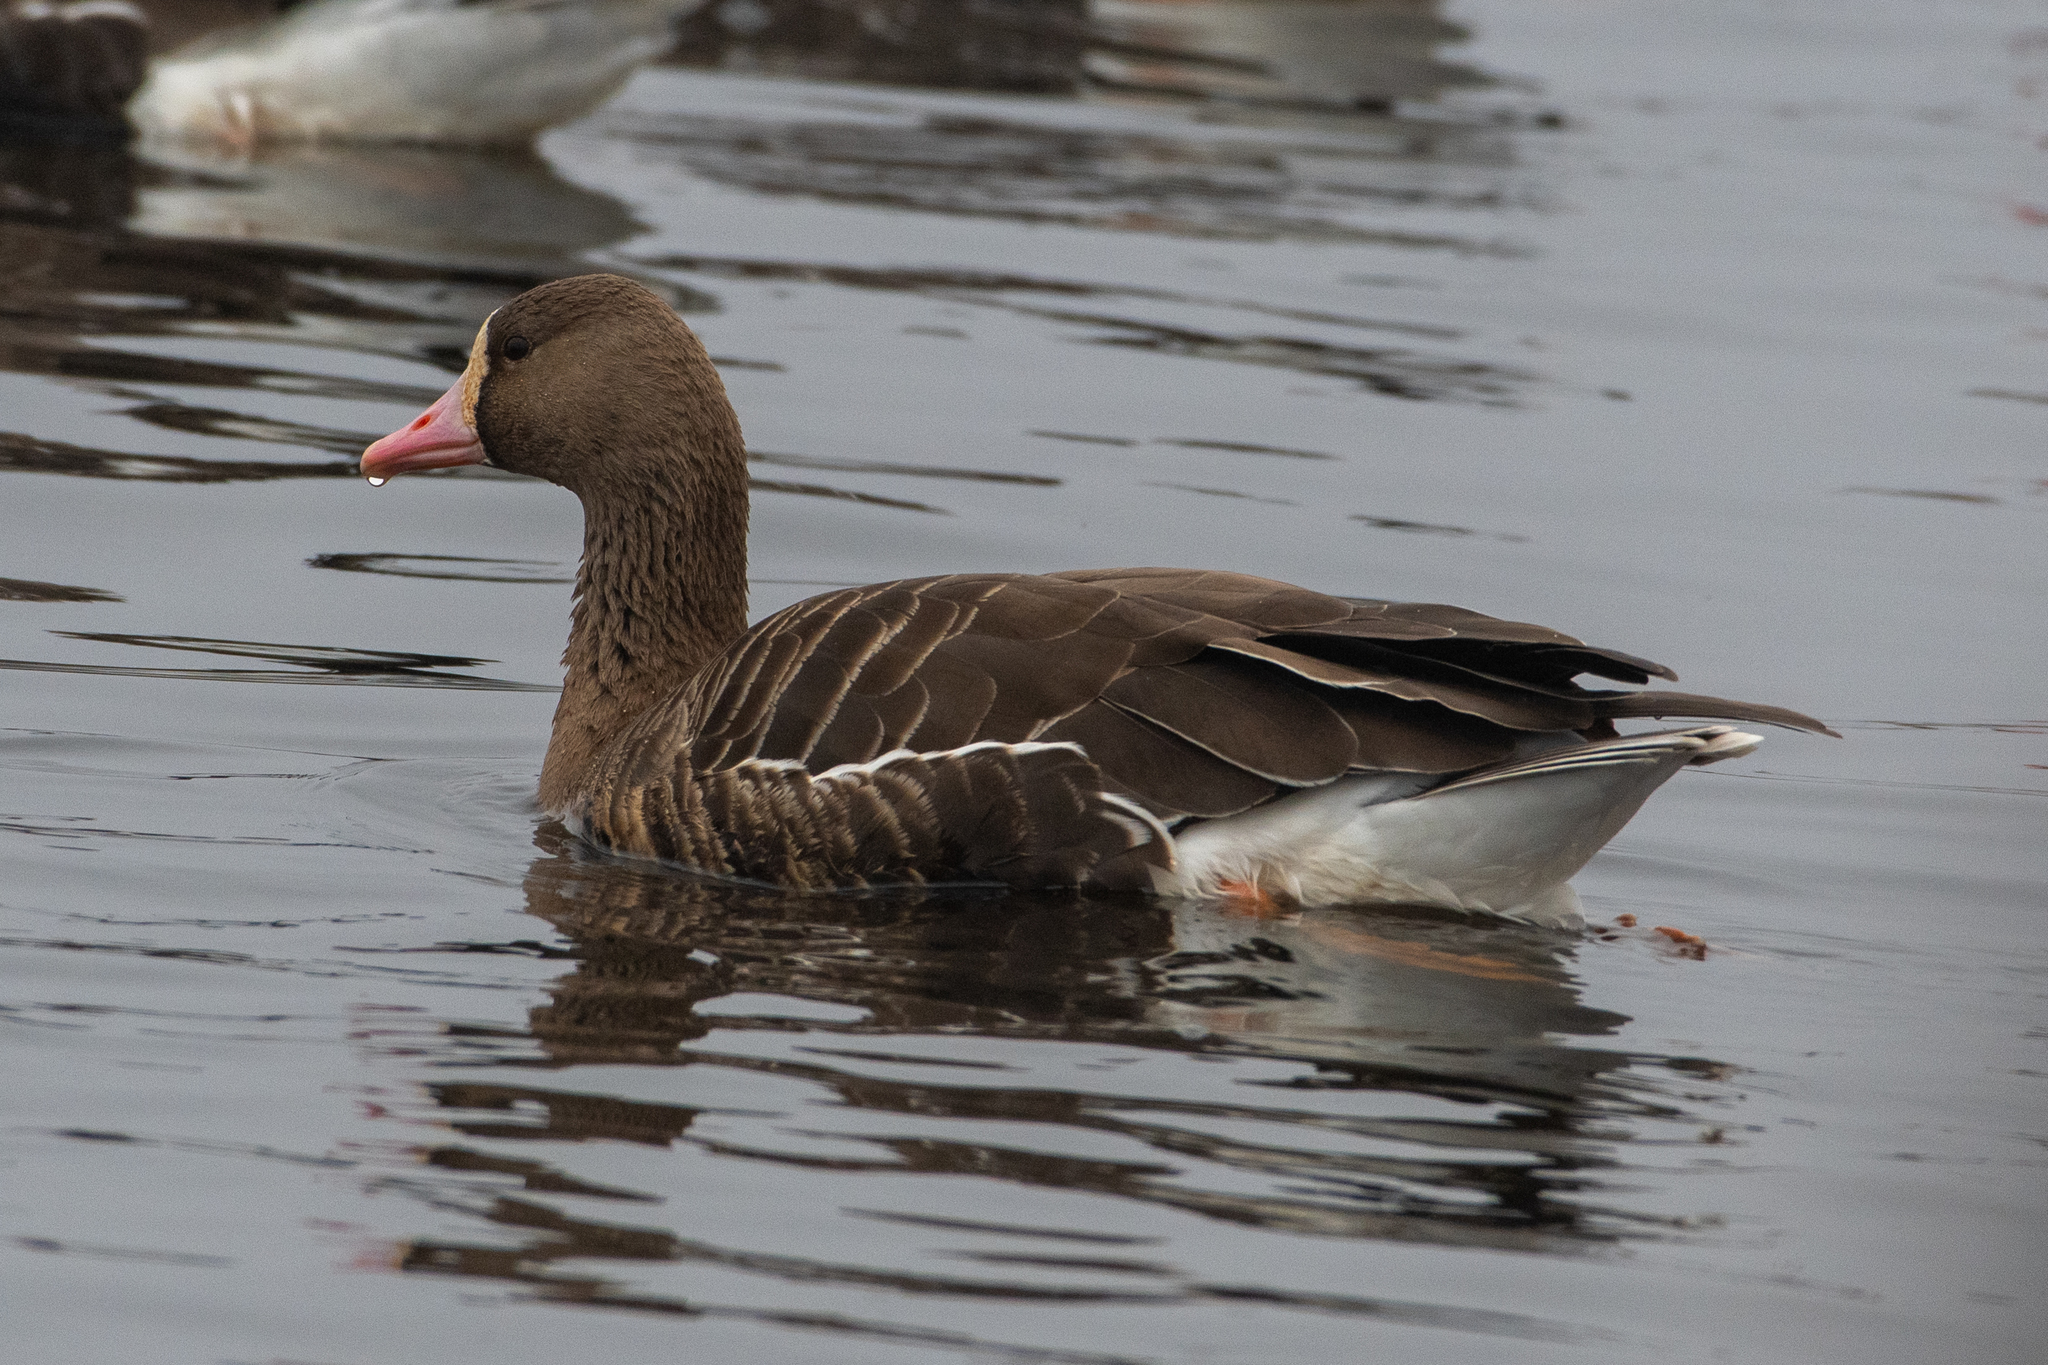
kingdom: Animalia
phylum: Chordata
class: Aves
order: Anseriformes
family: Anatidae
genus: Anser
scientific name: Anser albifrons
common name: Greater white-fronted goose
